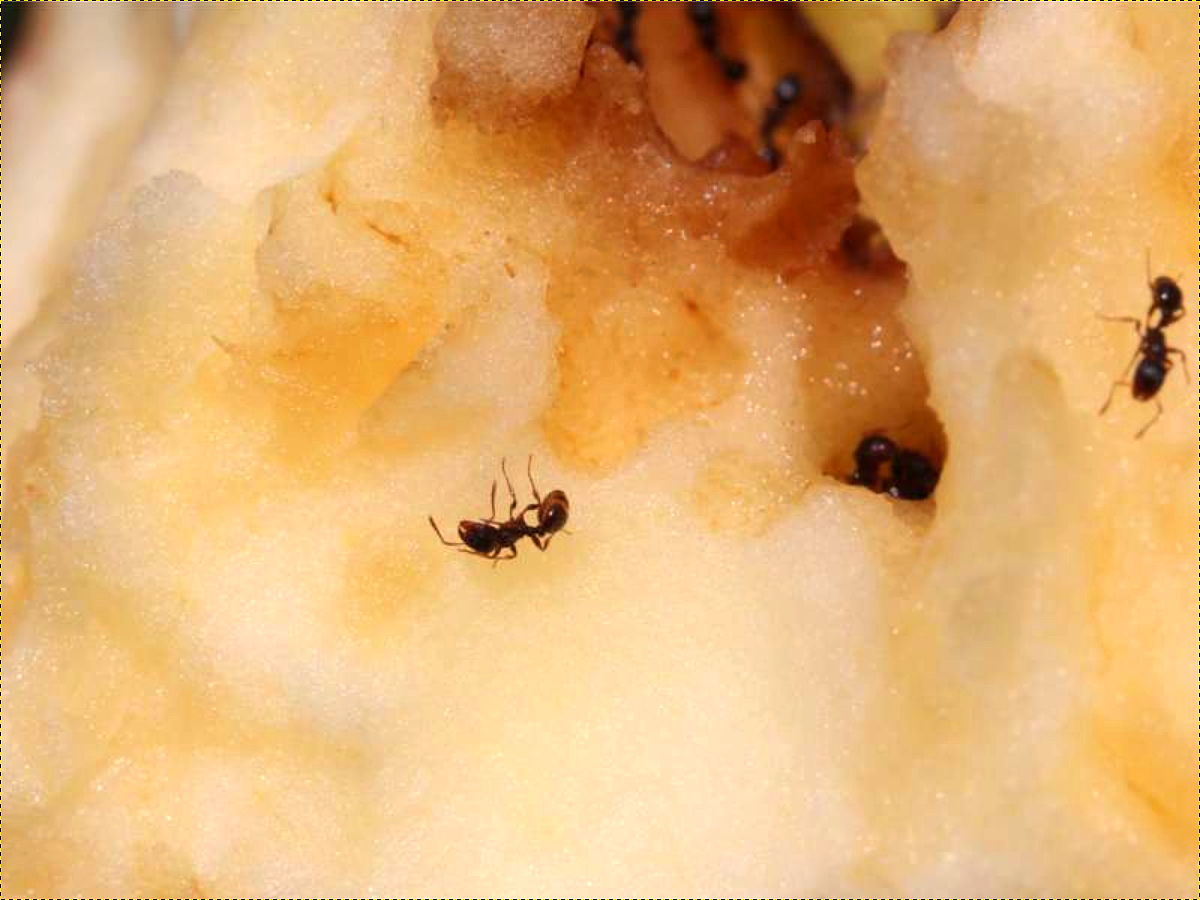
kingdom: Animalia
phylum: Arthropoda
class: Insecta
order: Hymenoptera
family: Formicidae
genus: Tetramorium
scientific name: Tetramorium immigrans
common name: Pavement ant
